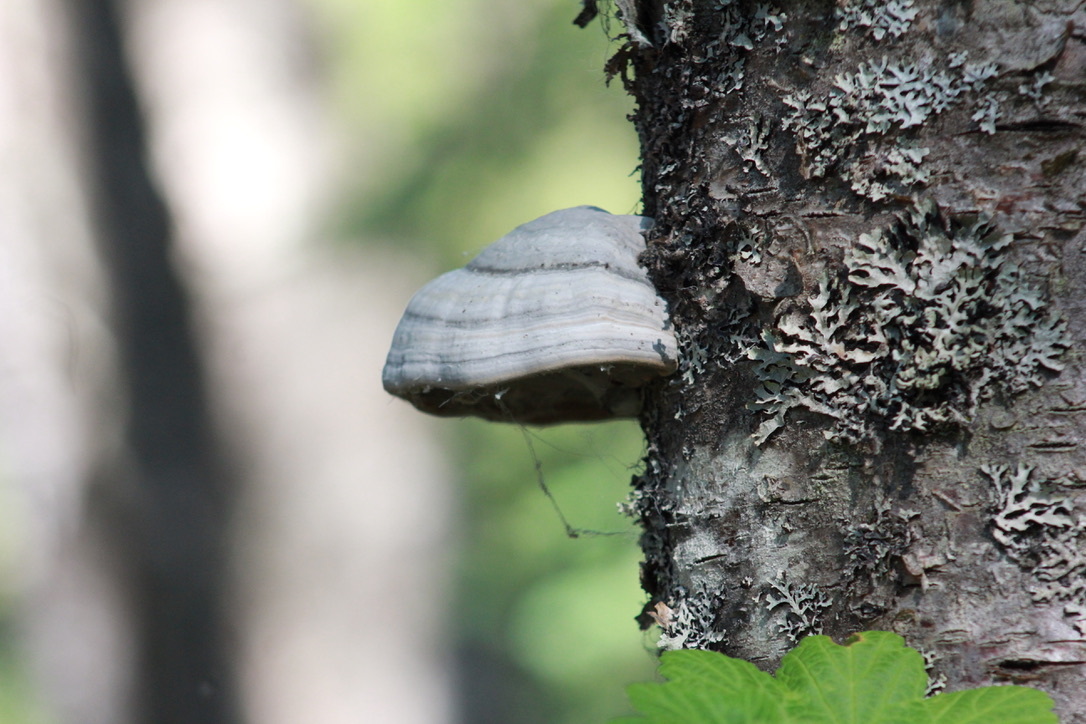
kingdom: Fungi
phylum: Basidiomycota
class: Agaricomycetes
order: Polyporales
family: Polyporaceae
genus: Fomes
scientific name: Fomes fomentarius
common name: Hoof fungus
